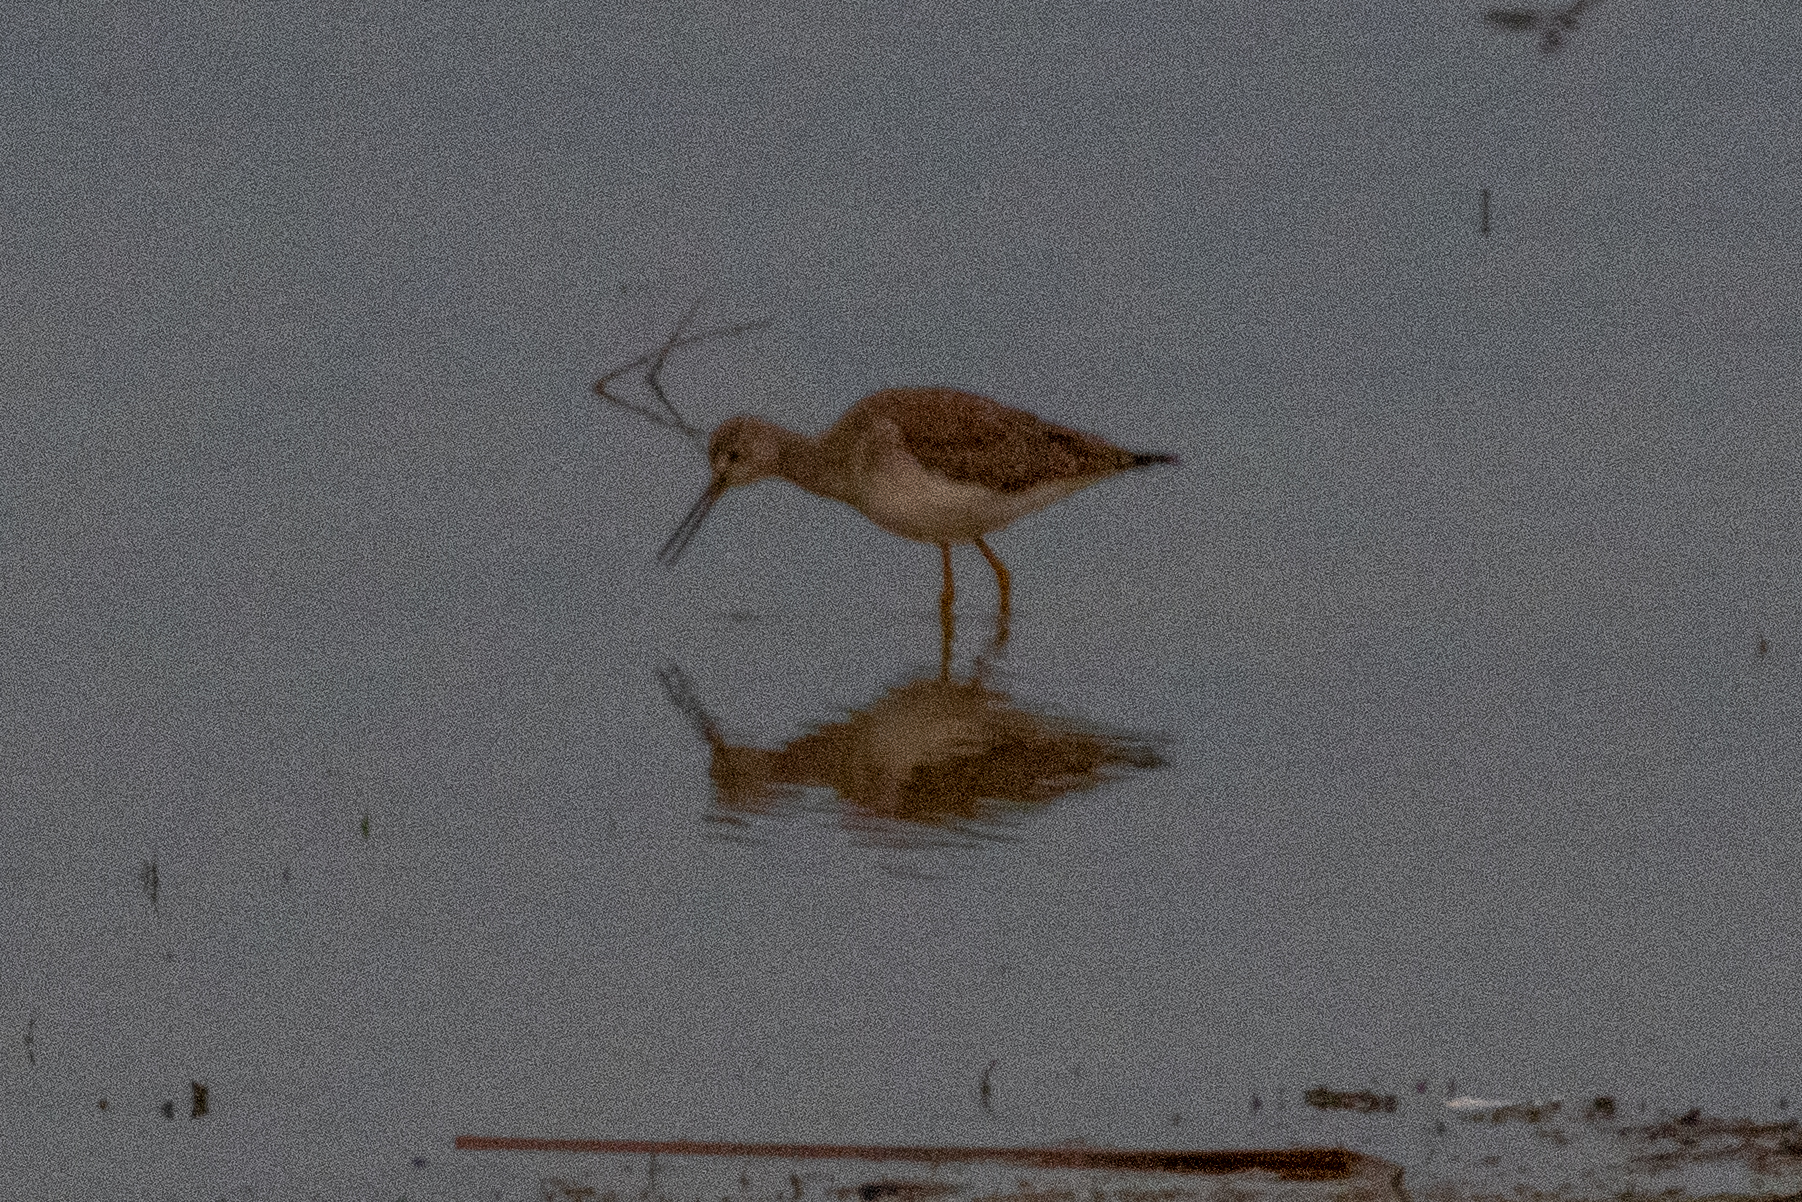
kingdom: Animalia
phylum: Chordata
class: Aves
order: Charadriiformes
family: Scolopacidae
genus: Tringa
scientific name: Tringa melanoleuca
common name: Greater yellowlegs
